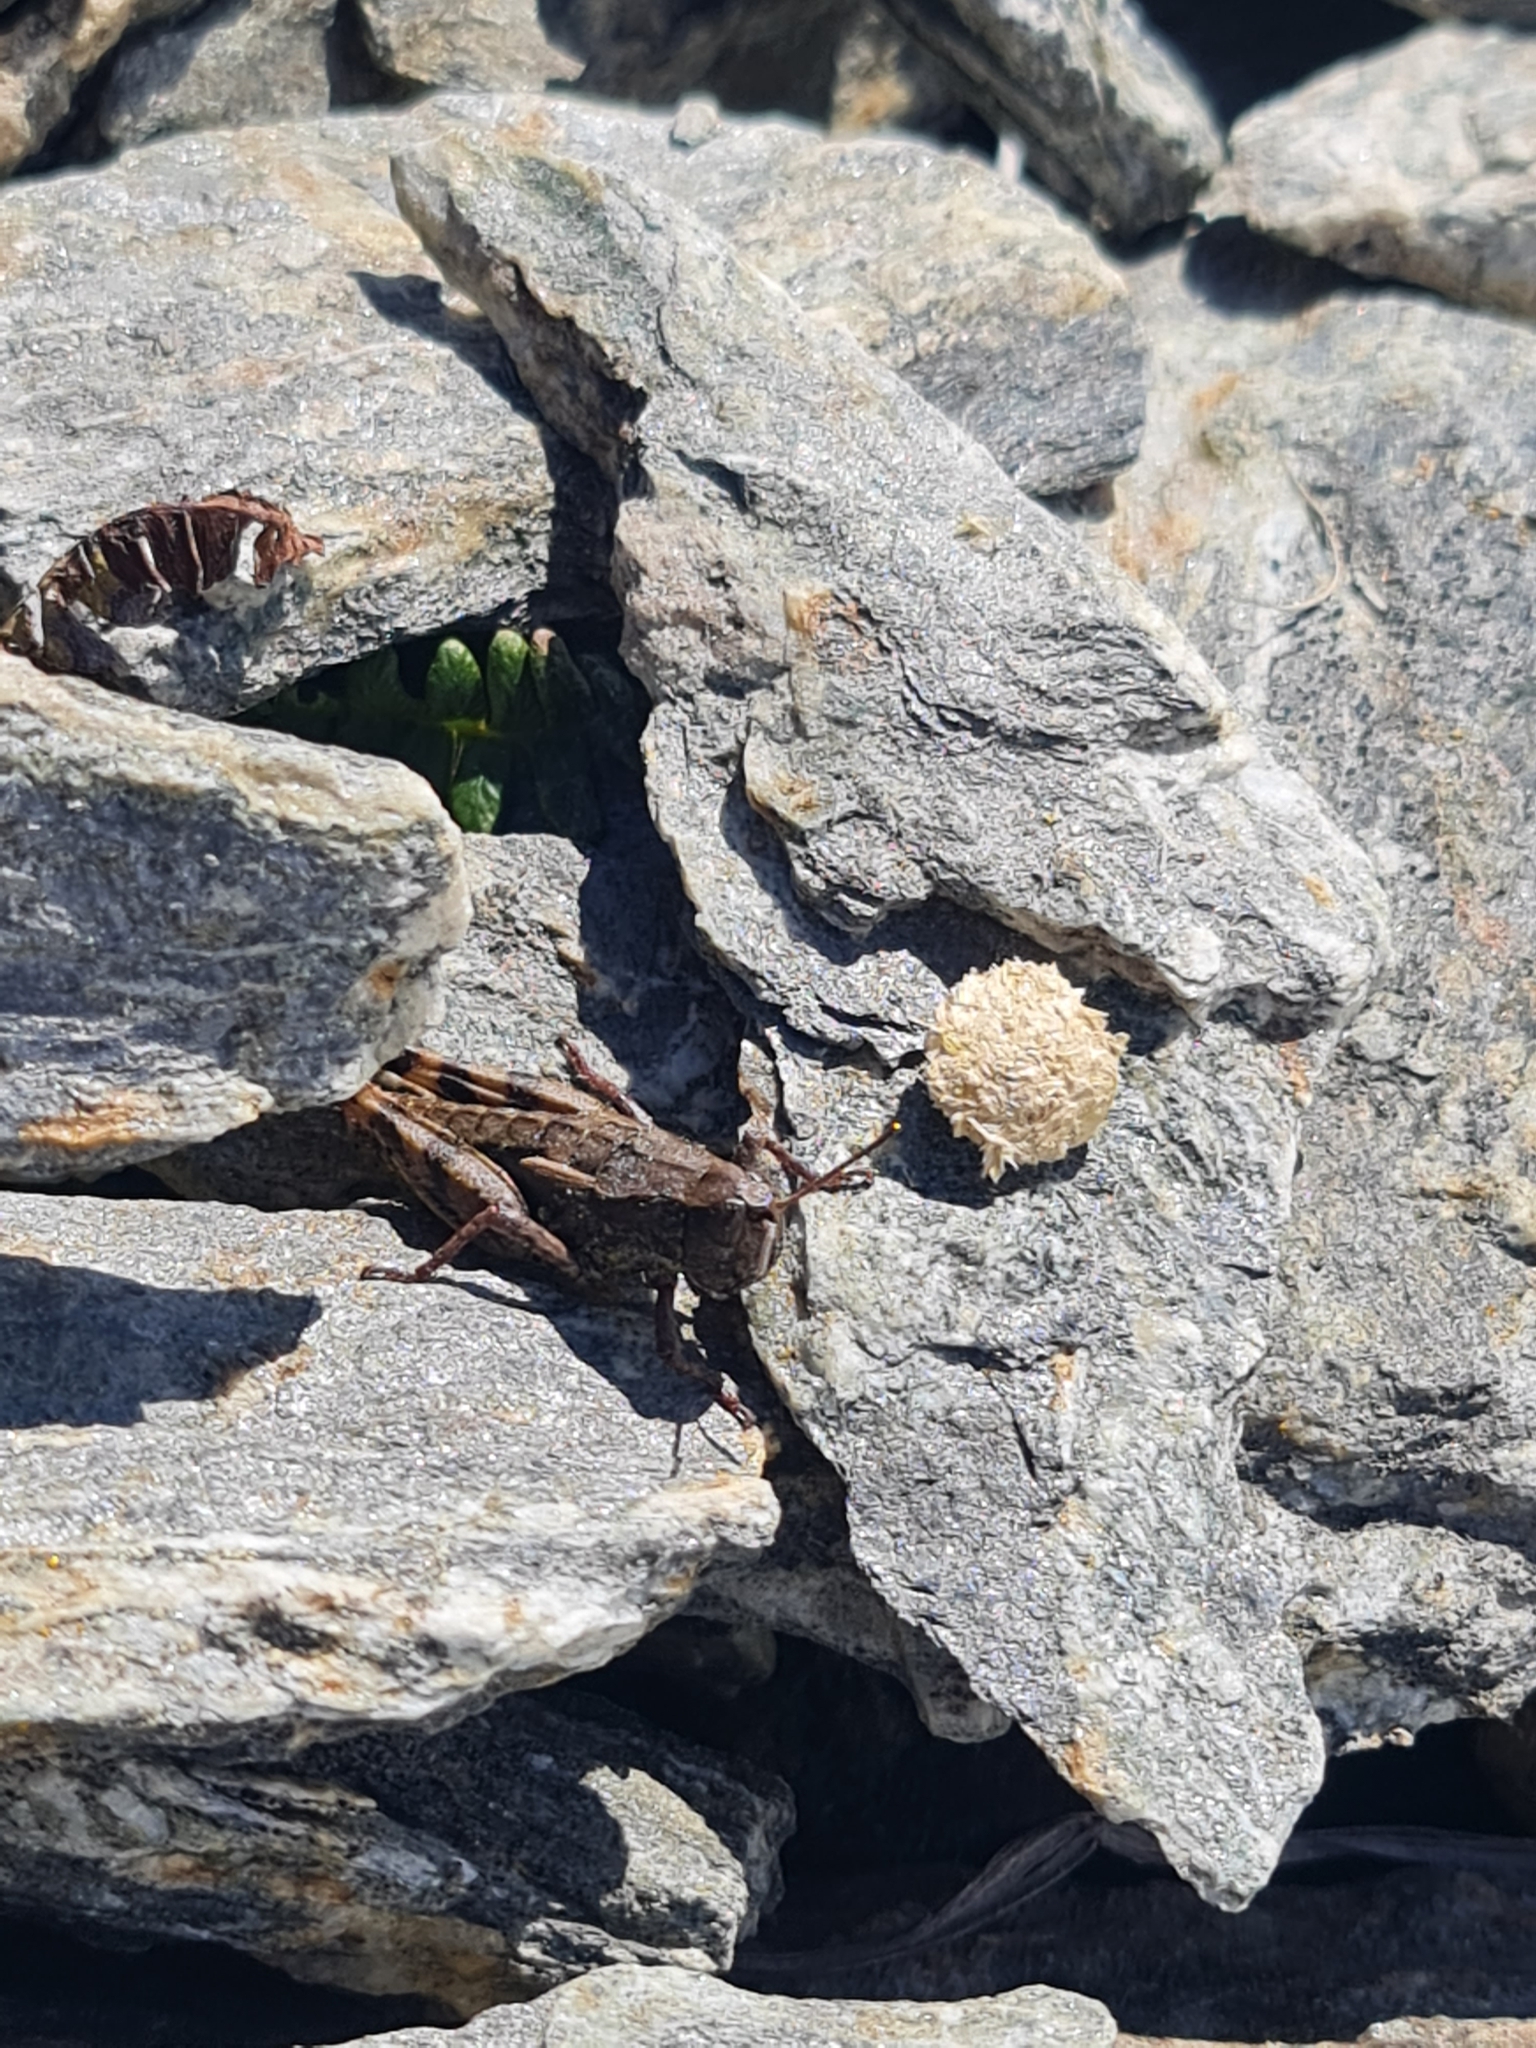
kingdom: Animalia
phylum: Arthropoda
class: Insecta
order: Orthoptera
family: Acrididae
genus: Sigaus
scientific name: Sigaus australis
